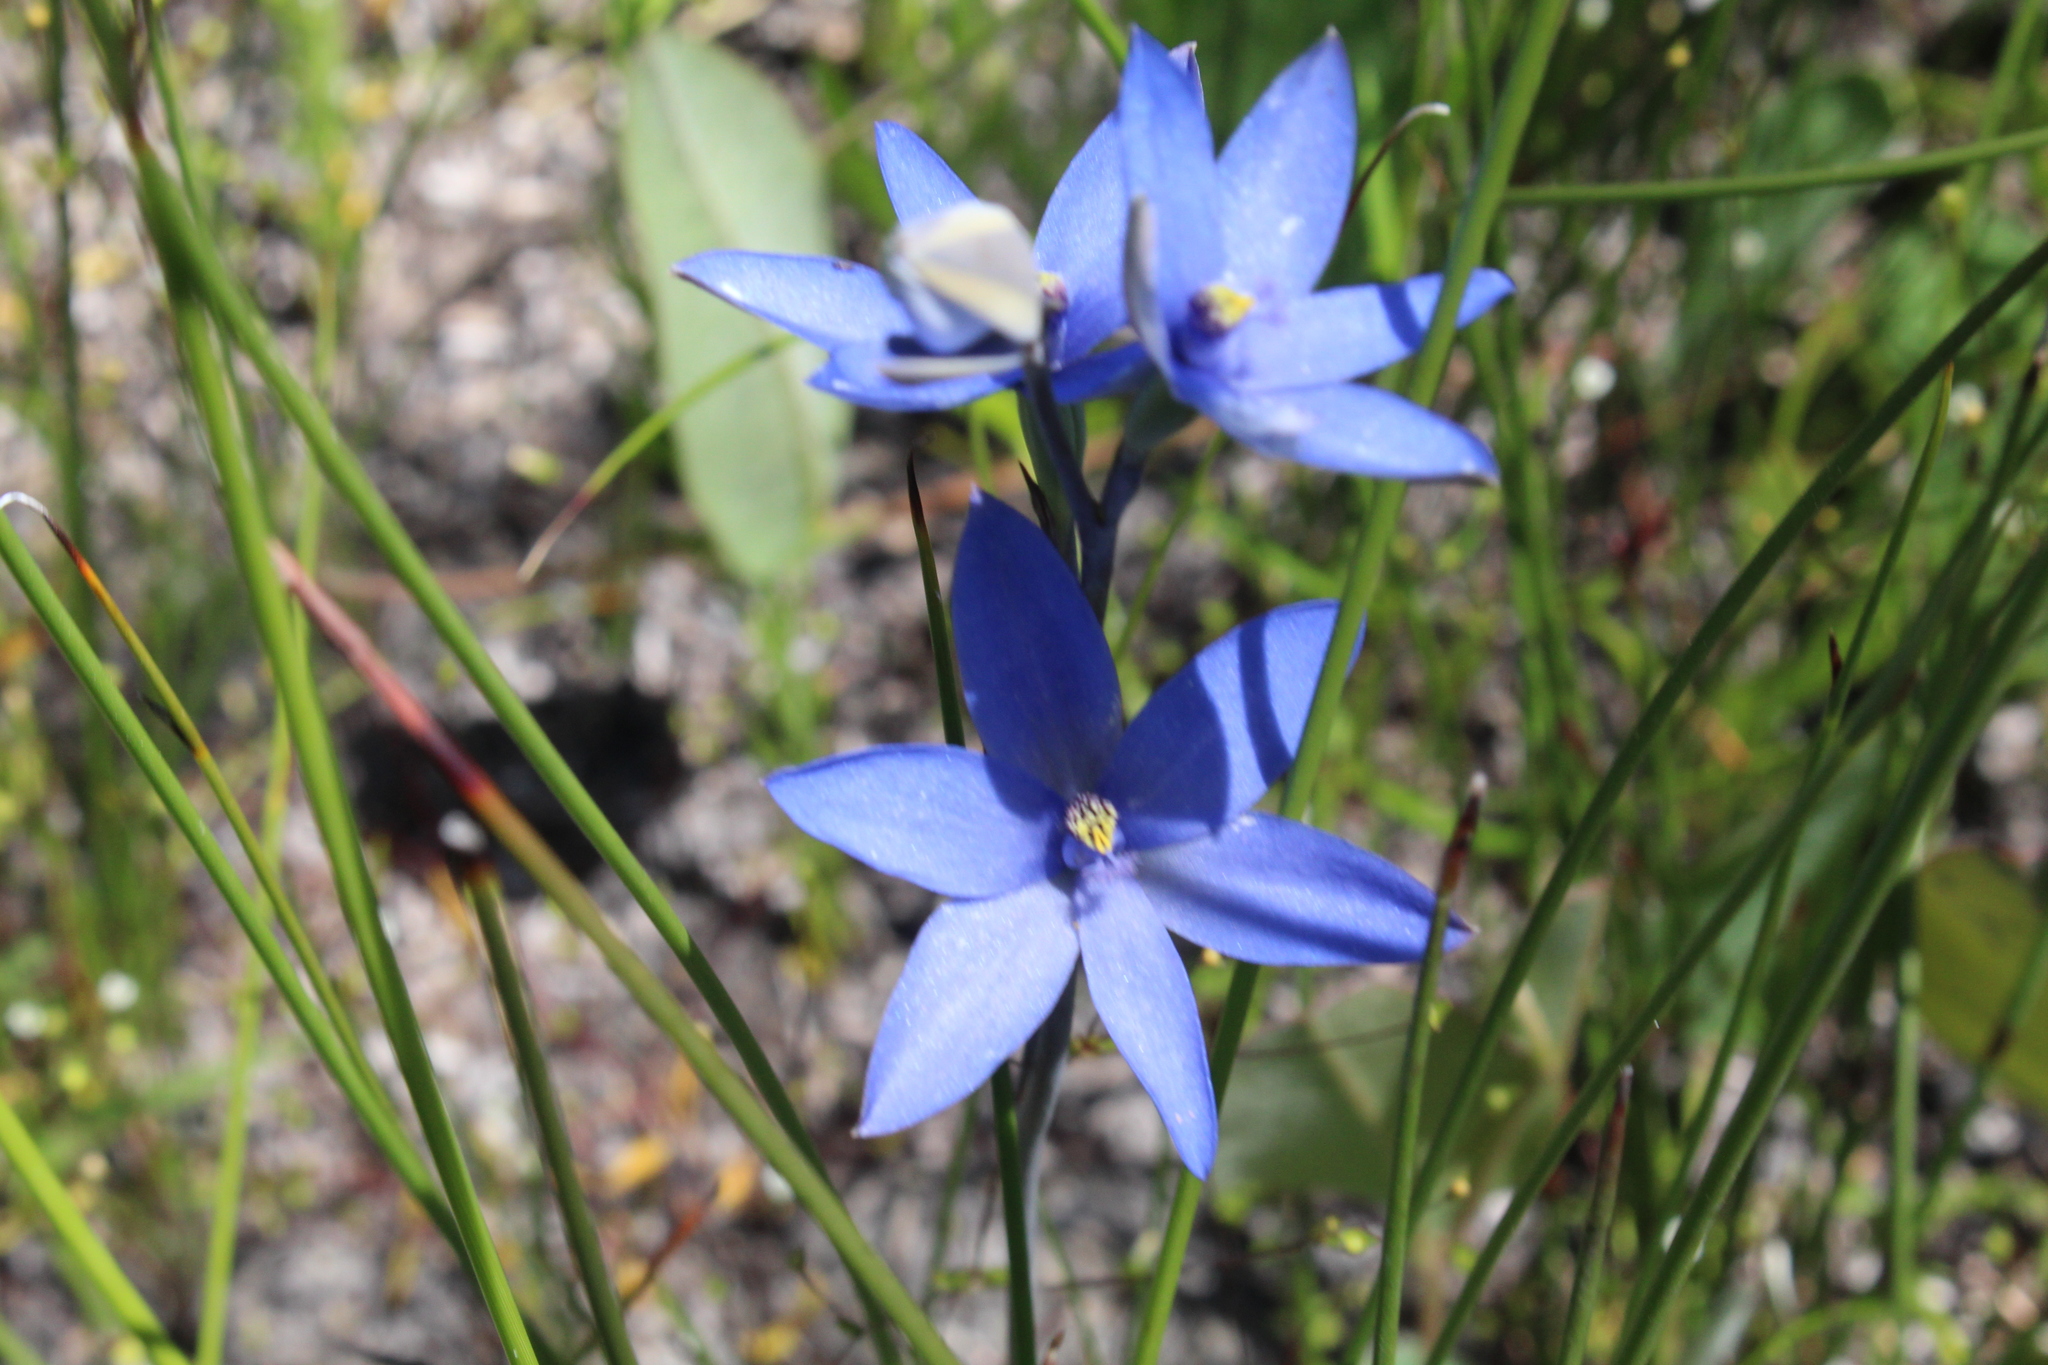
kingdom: Plantae
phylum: Tracheophyta
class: Liliopsida
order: Asparagales
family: Orchidaceae
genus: Thelymitra
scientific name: Thelymitra crinita
